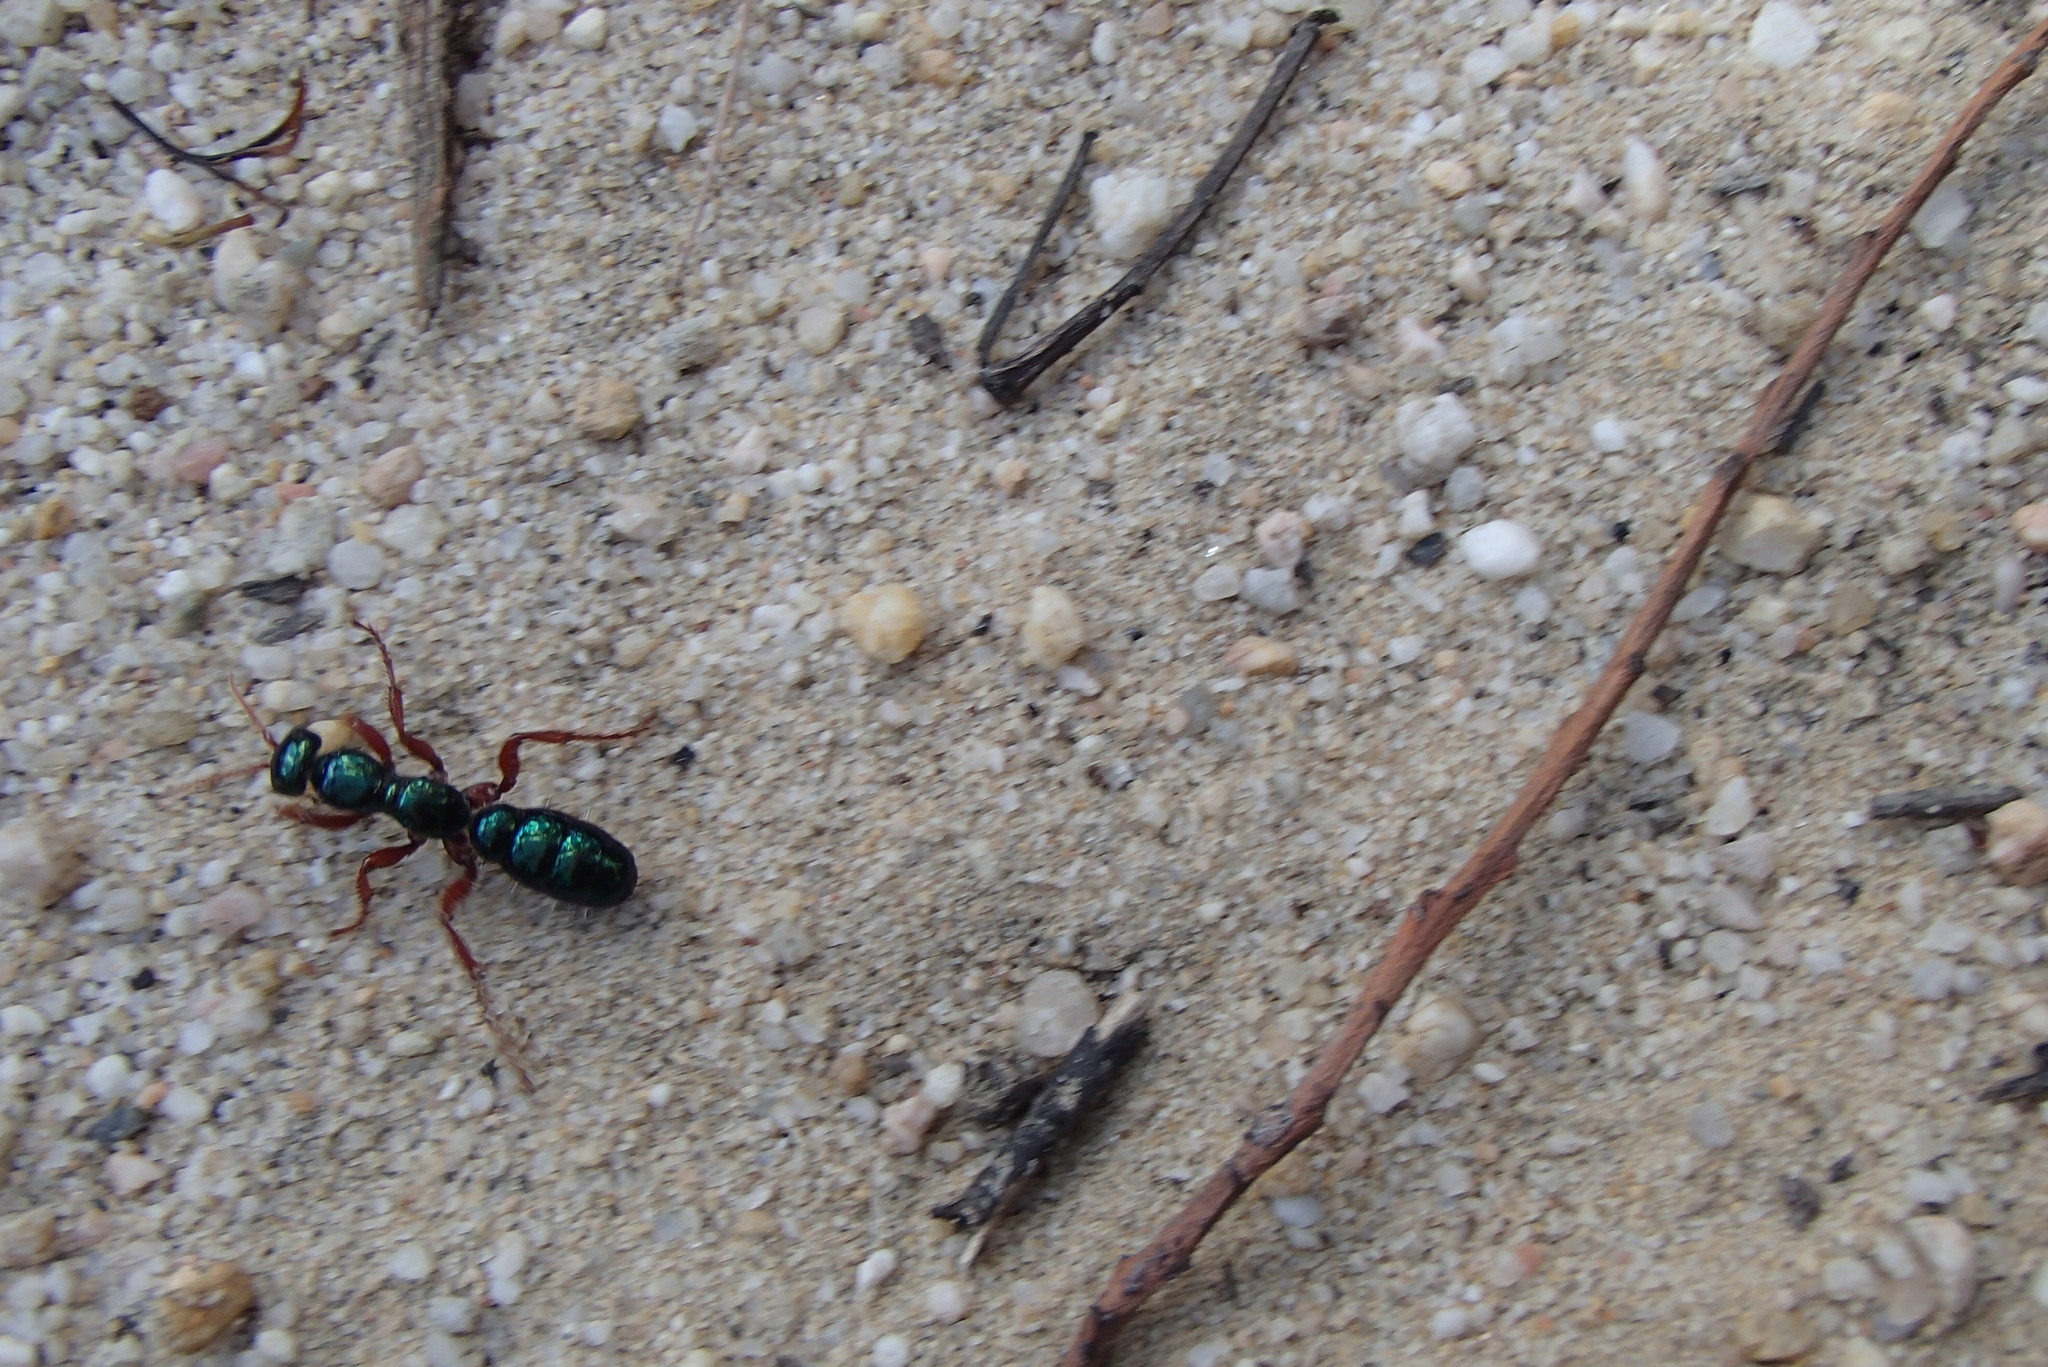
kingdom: Animalia
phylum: Arthropoda
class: Insecta
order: Hymenoptera
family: Tiphiidae
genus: Diamma
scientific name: Diamma
